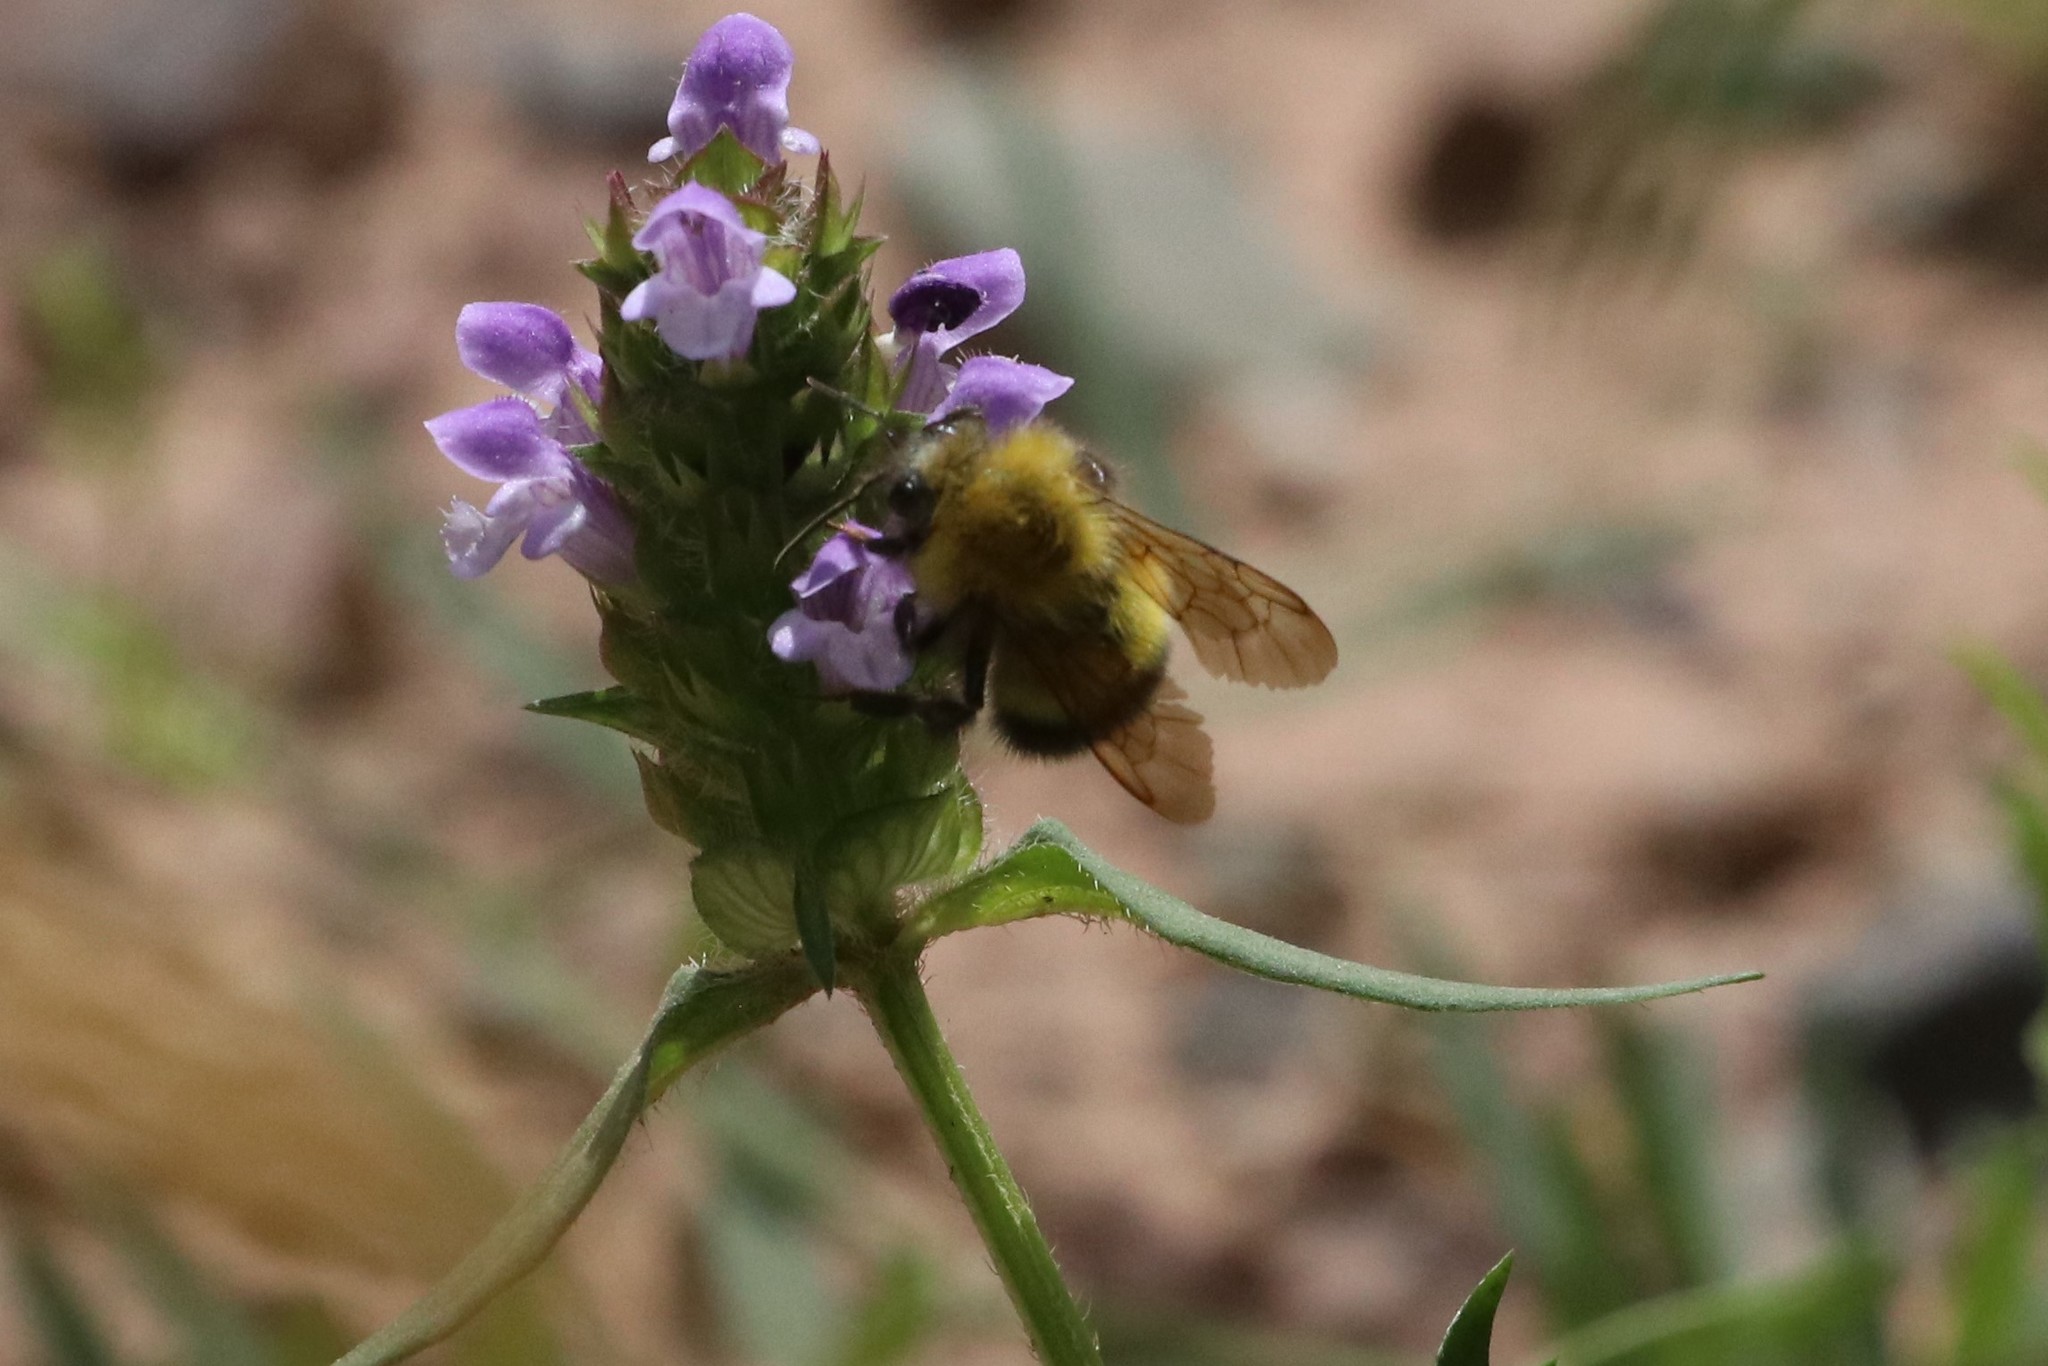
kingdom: Animalia
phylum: Arthropoda
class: Insecta
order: Hymenoptera
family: Apidae
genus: Bombus
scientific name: Bombus perplexus
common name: Confusing bumble bee
